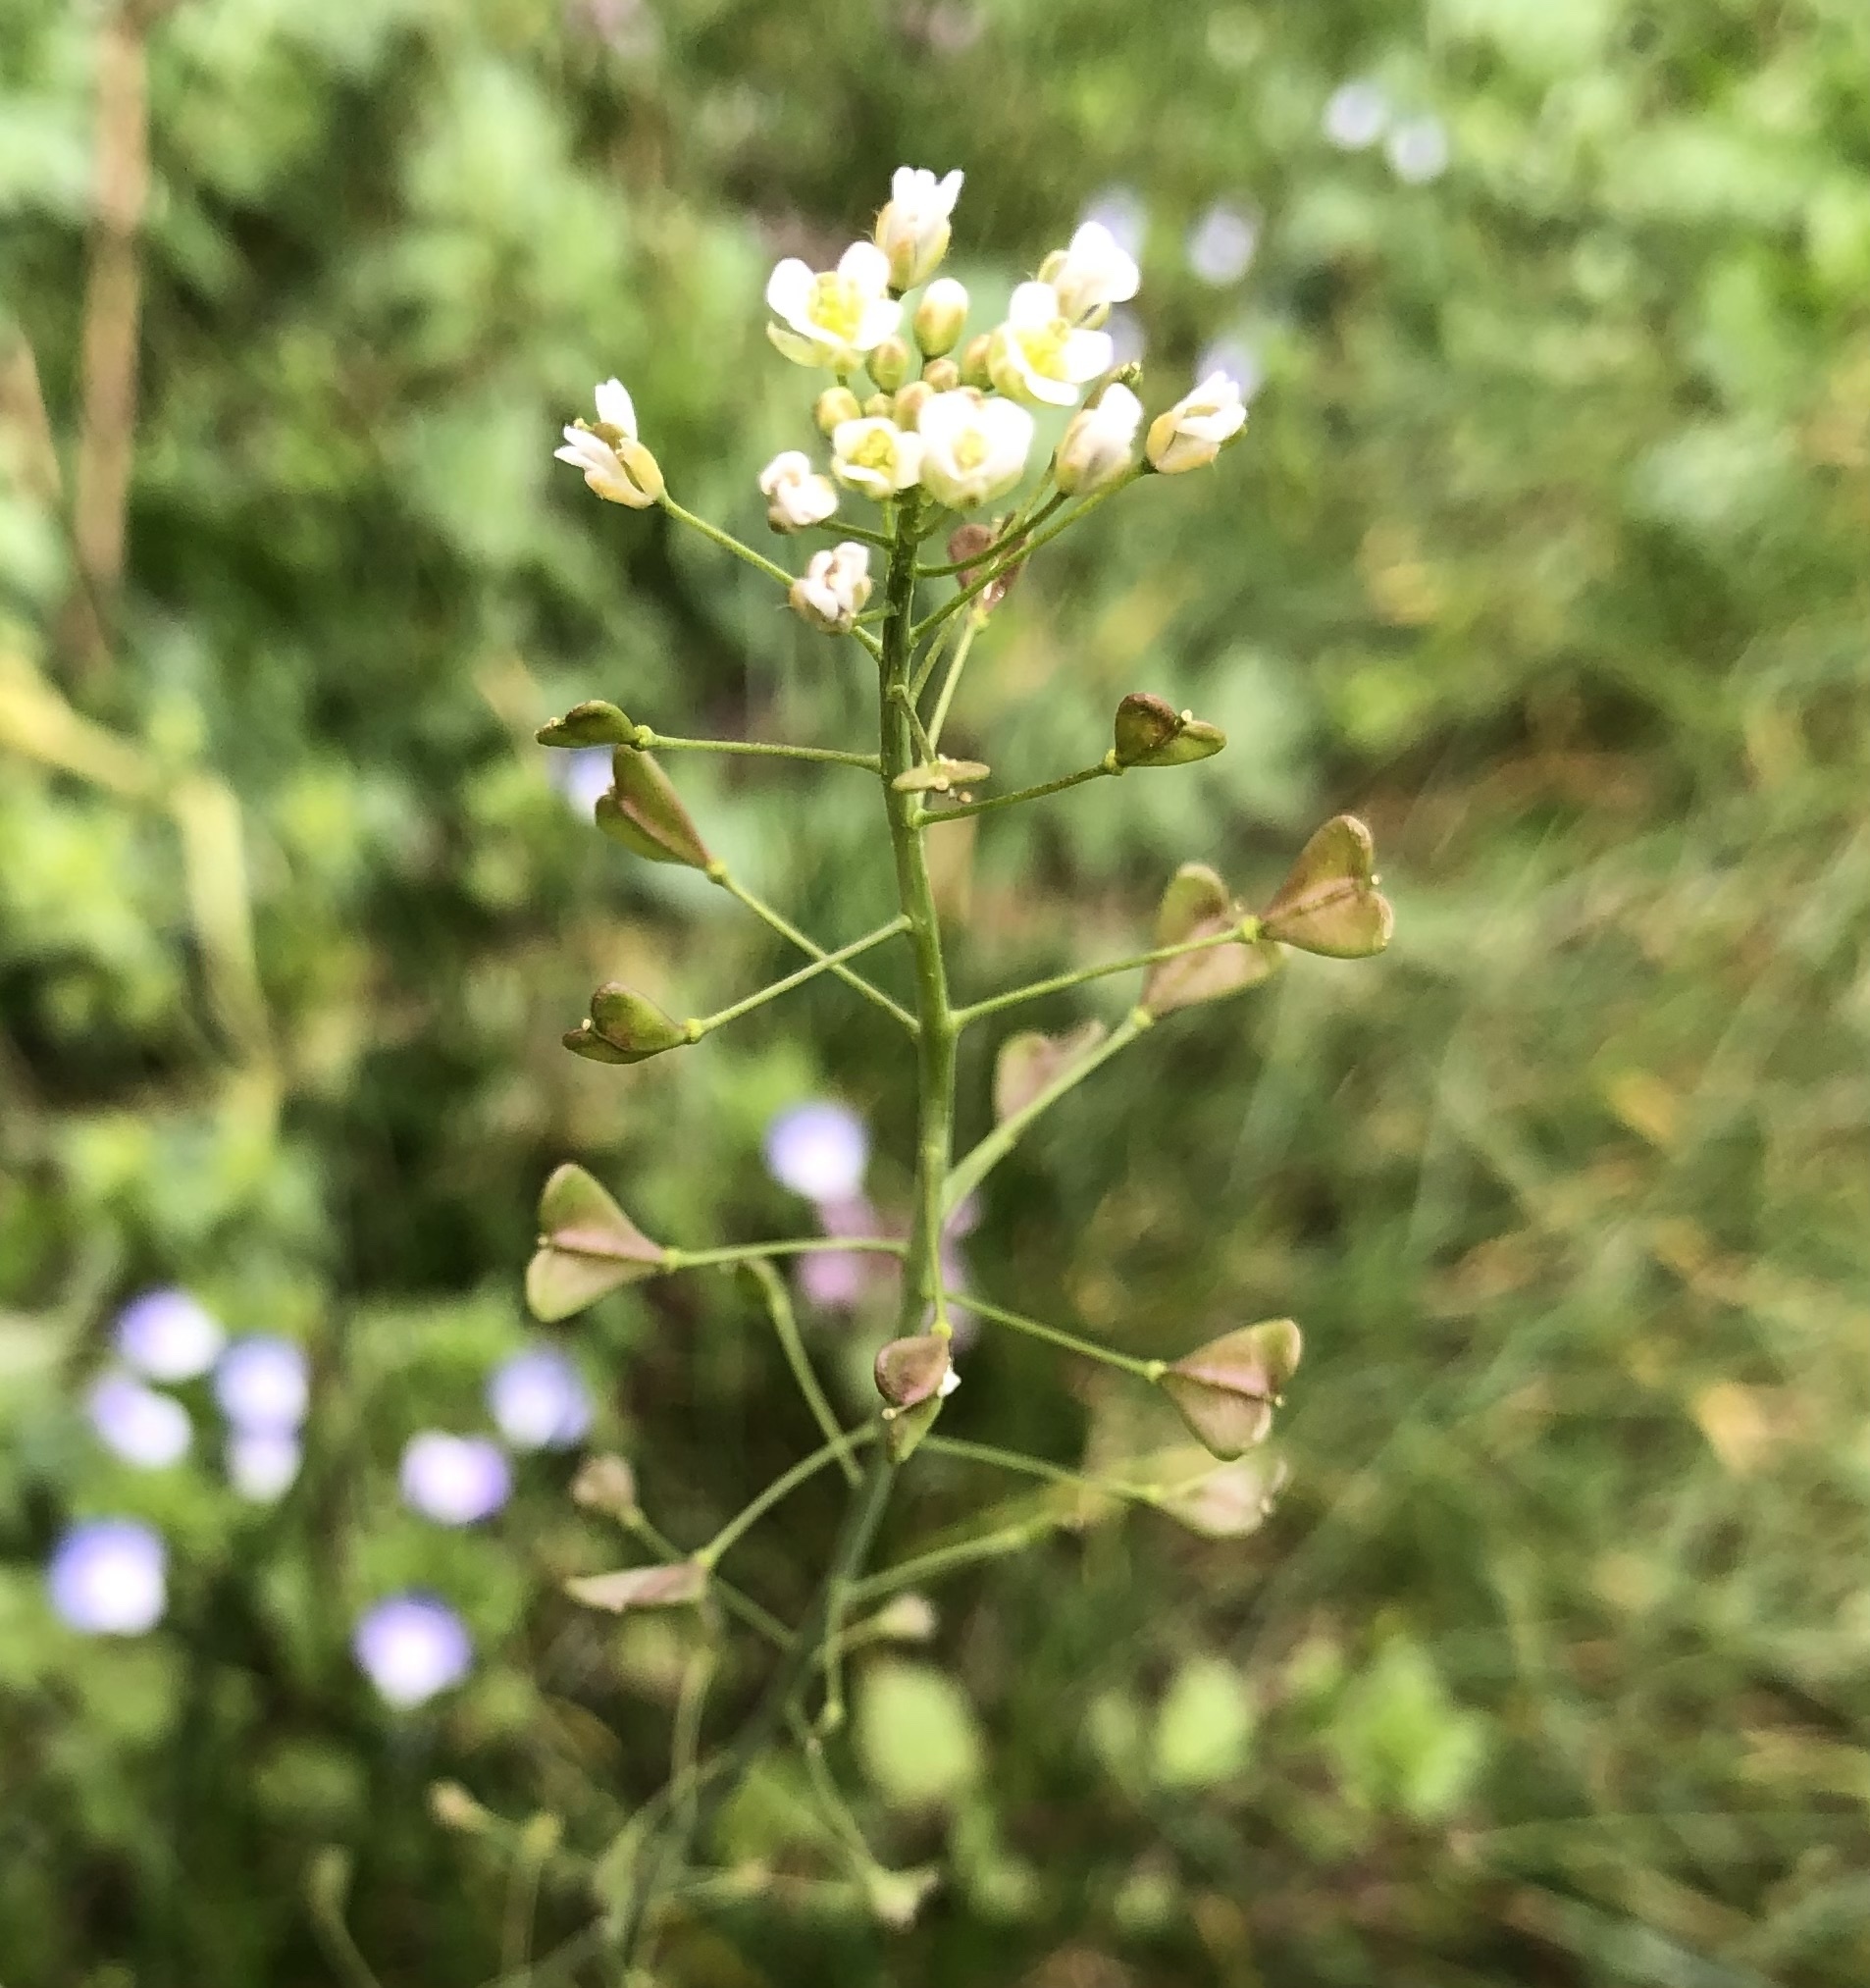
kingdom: Plantae
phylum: Tracheophyta
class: Magnoliopsida
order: Brassicales
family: Brassicaceae
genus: Capsella
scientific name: Capsella bursa-pastoris
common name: Shepherd's purse
